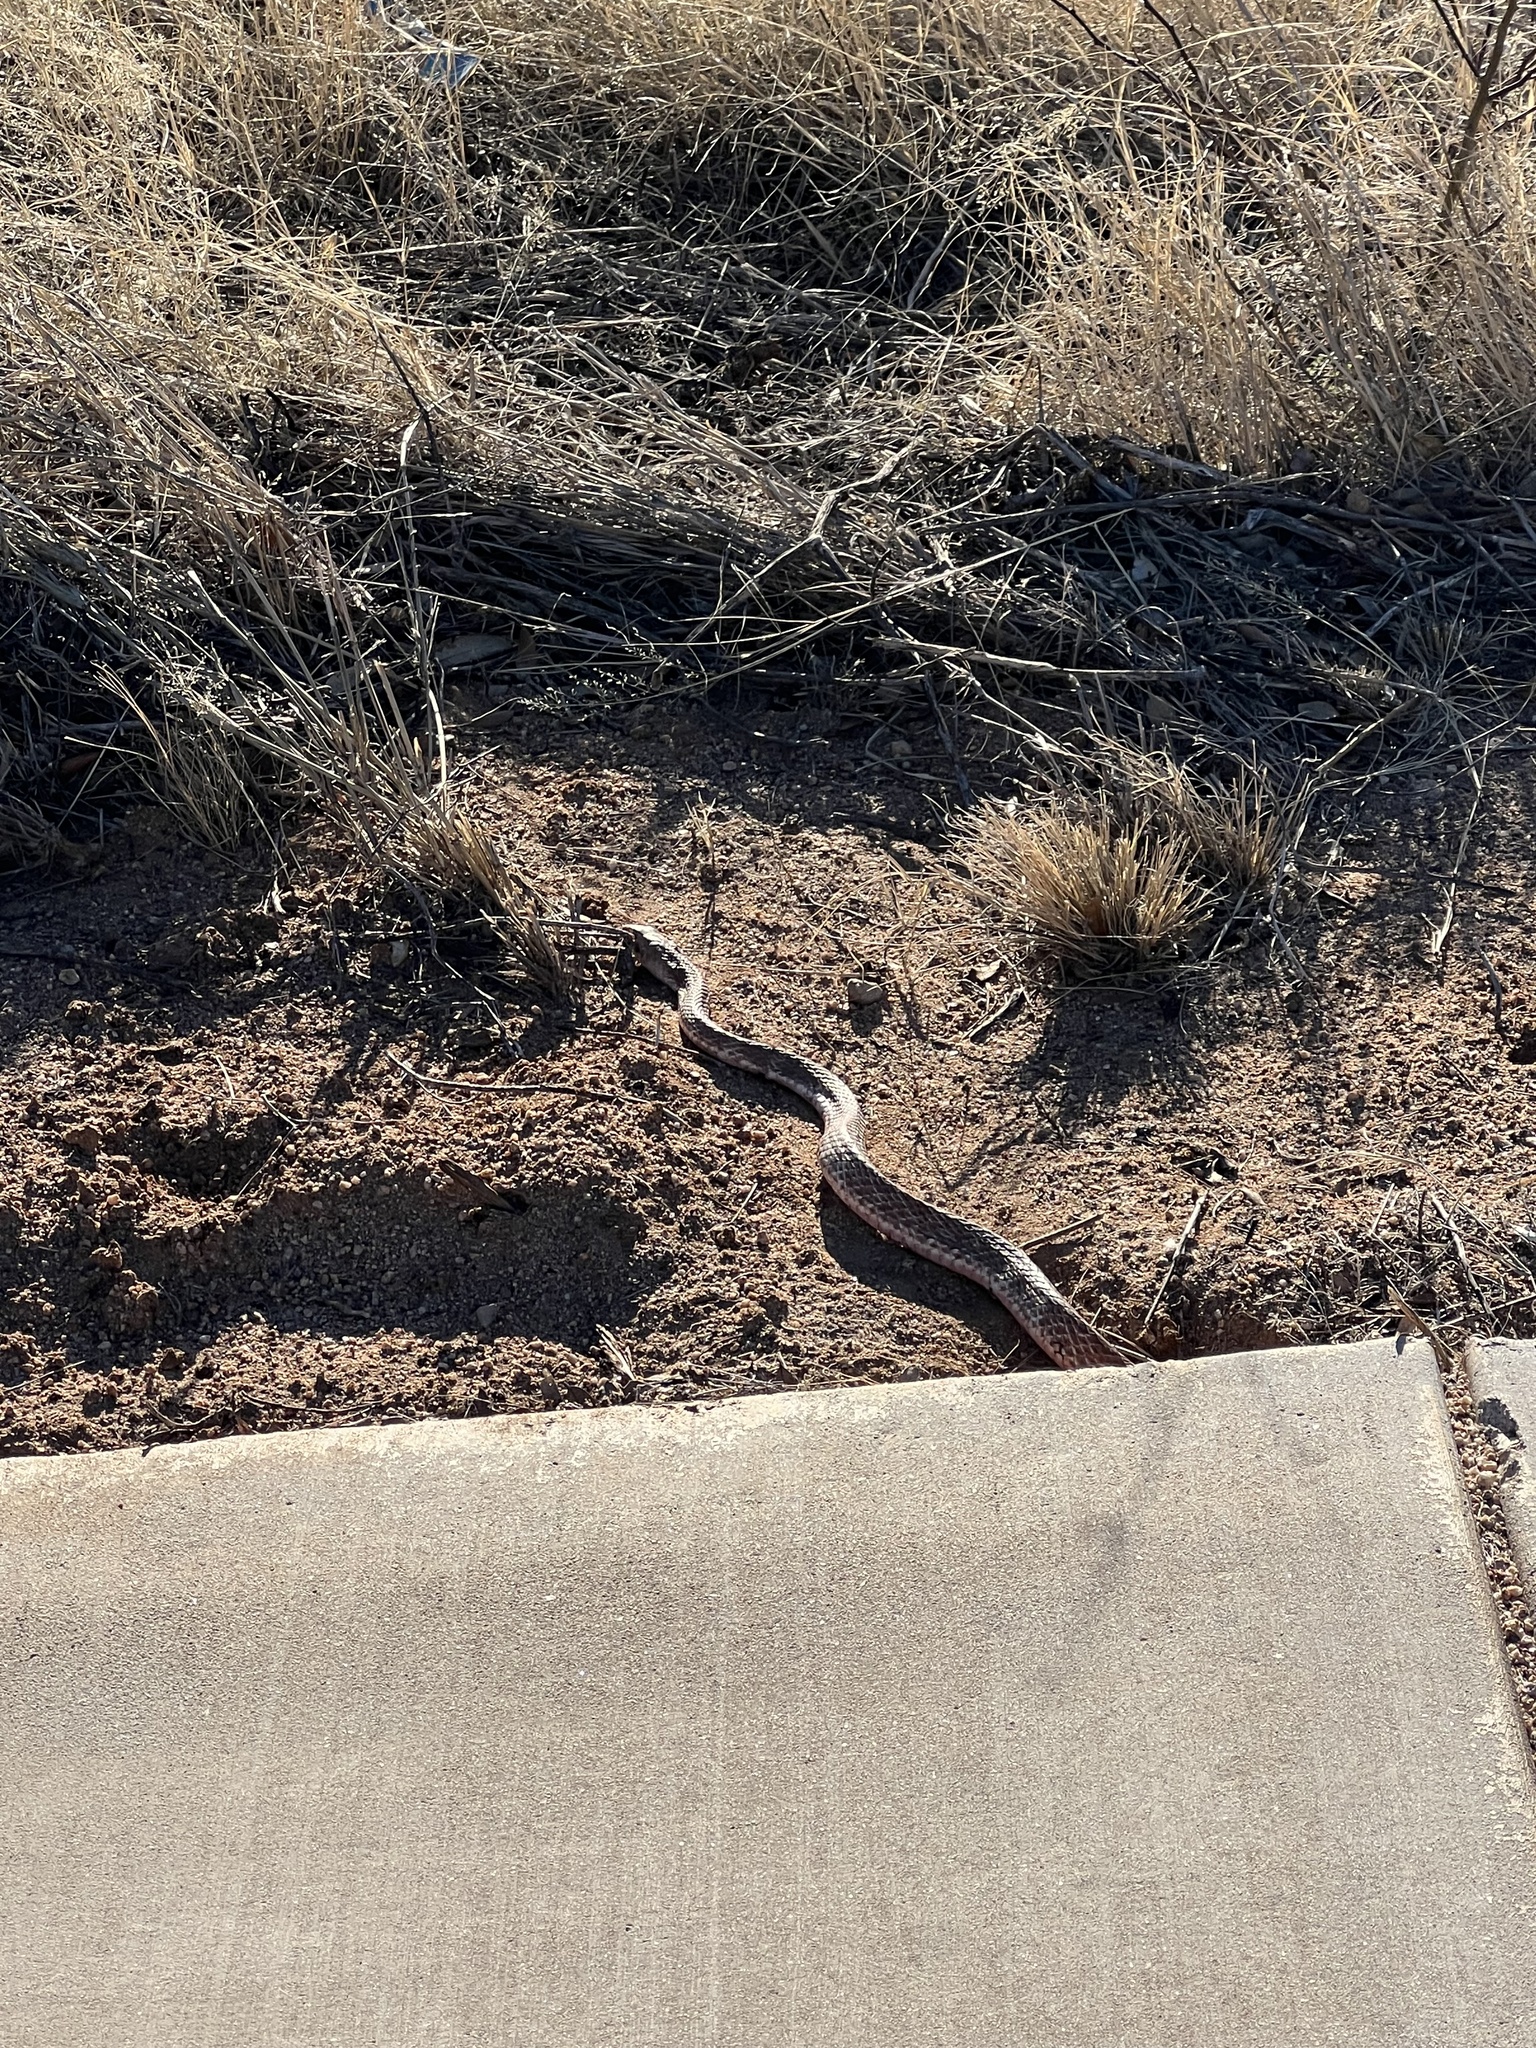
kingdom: Animalia
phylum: Chordata
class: Squamata
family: Colubridae
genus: Masticophis
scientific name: Masticophis flagellum
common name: Coachwhip
